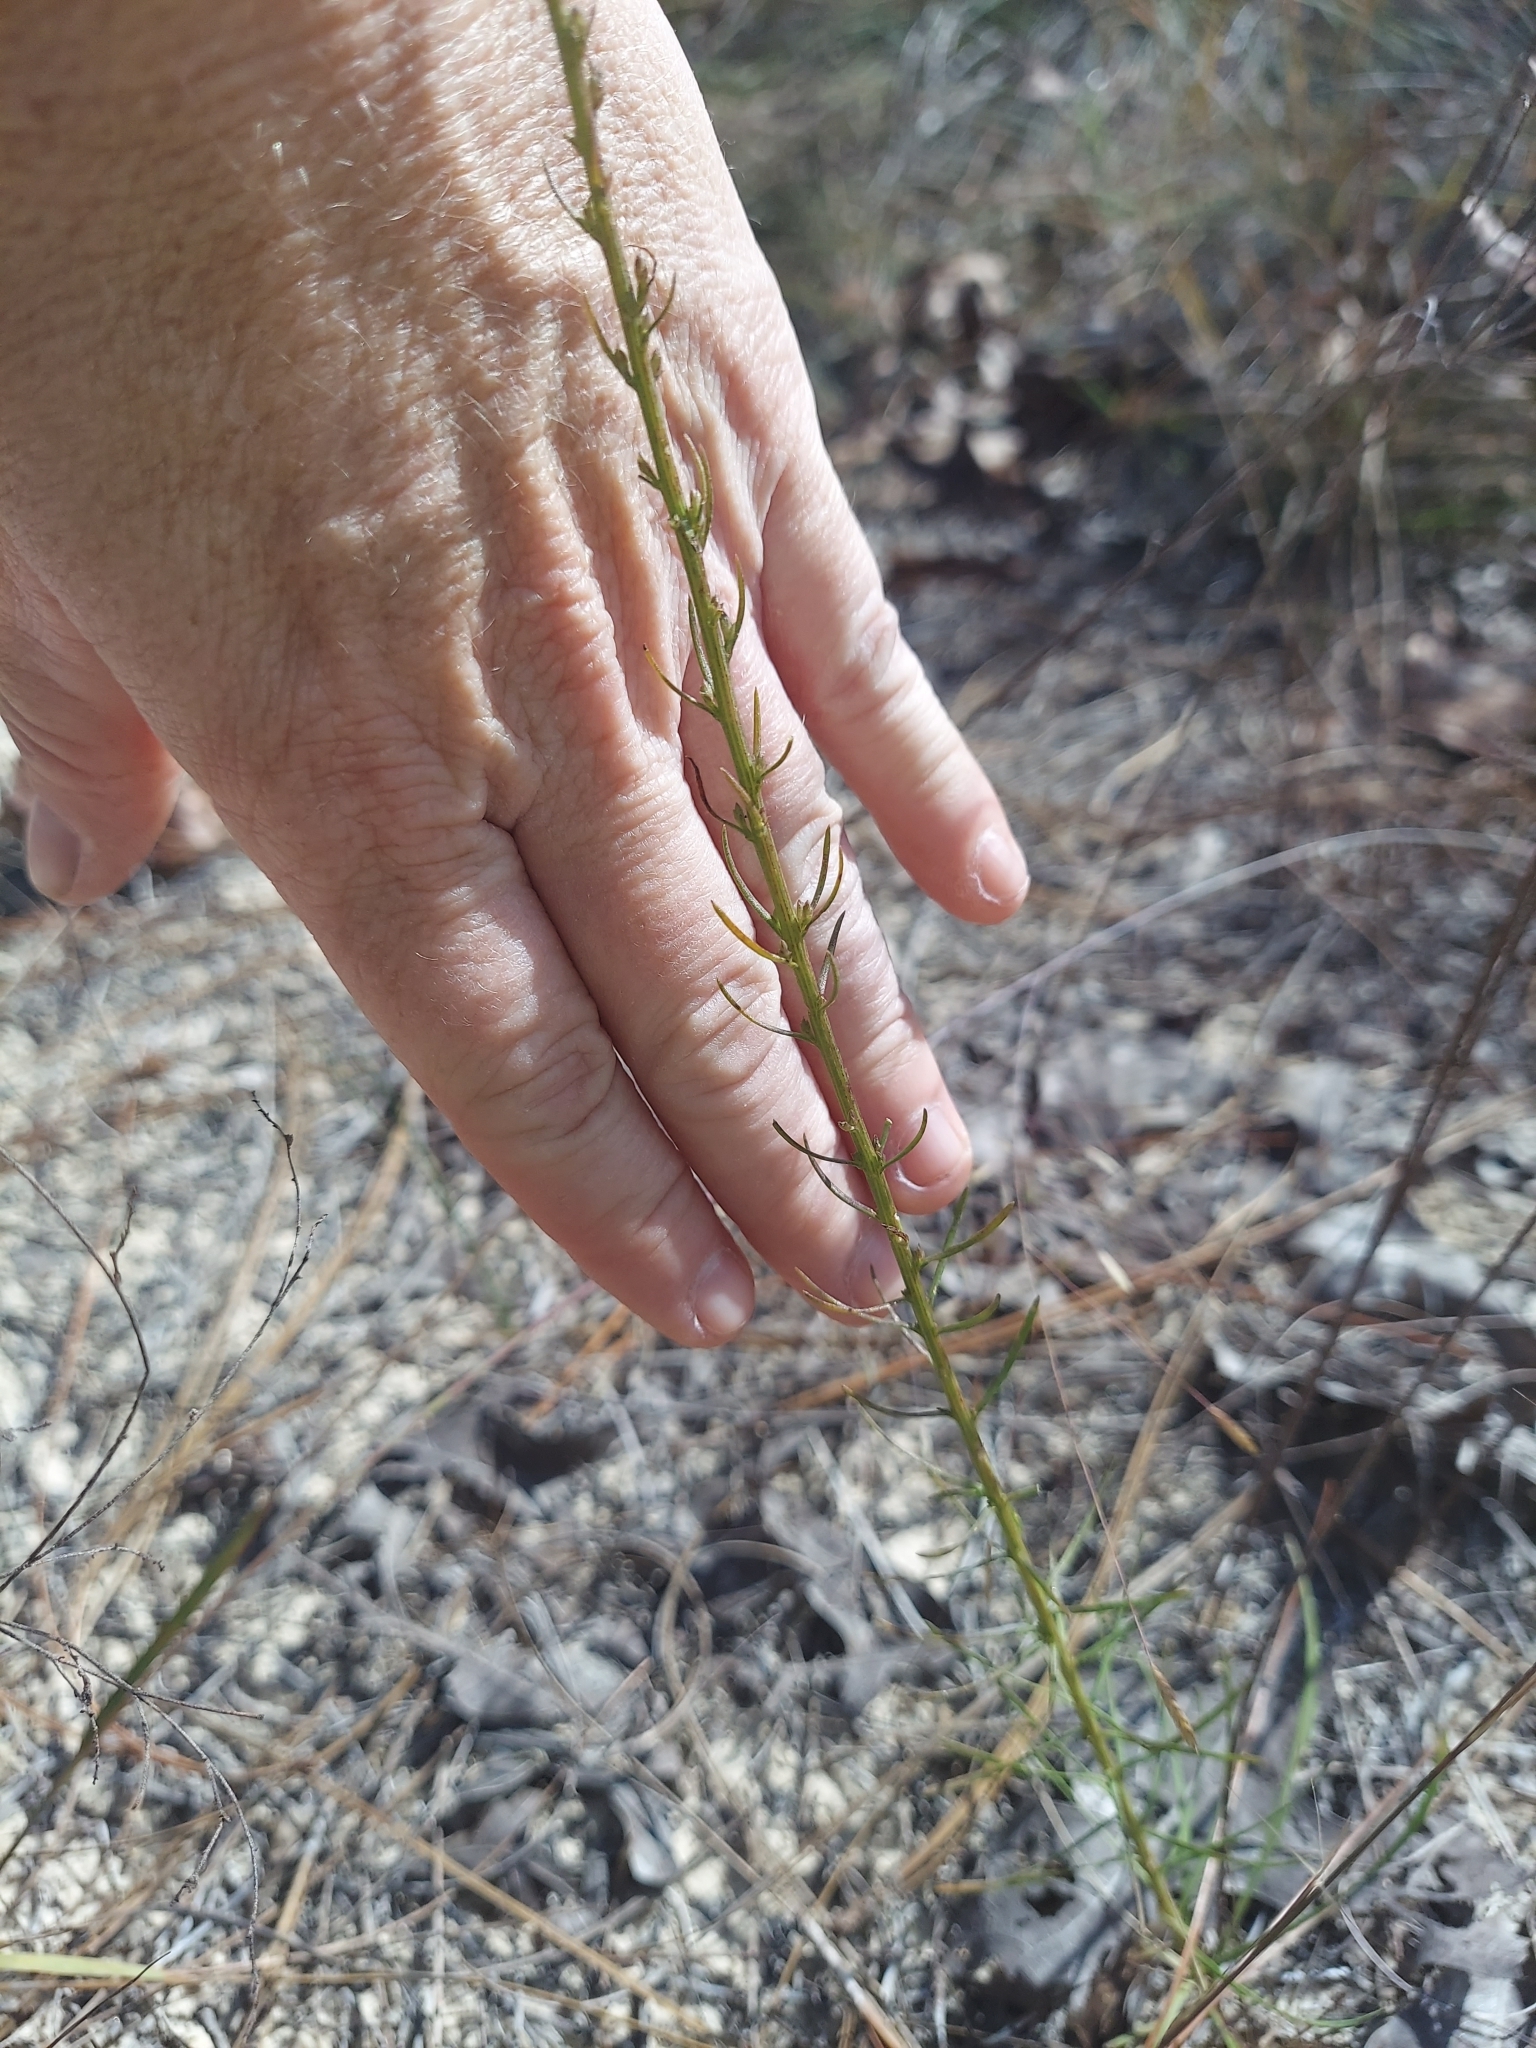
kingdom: Plantae
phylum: Tracheophyta
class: Magnoliopsida
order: Asterales
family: Asteraceae
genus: Liatris
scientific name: Liatris pauciflora
